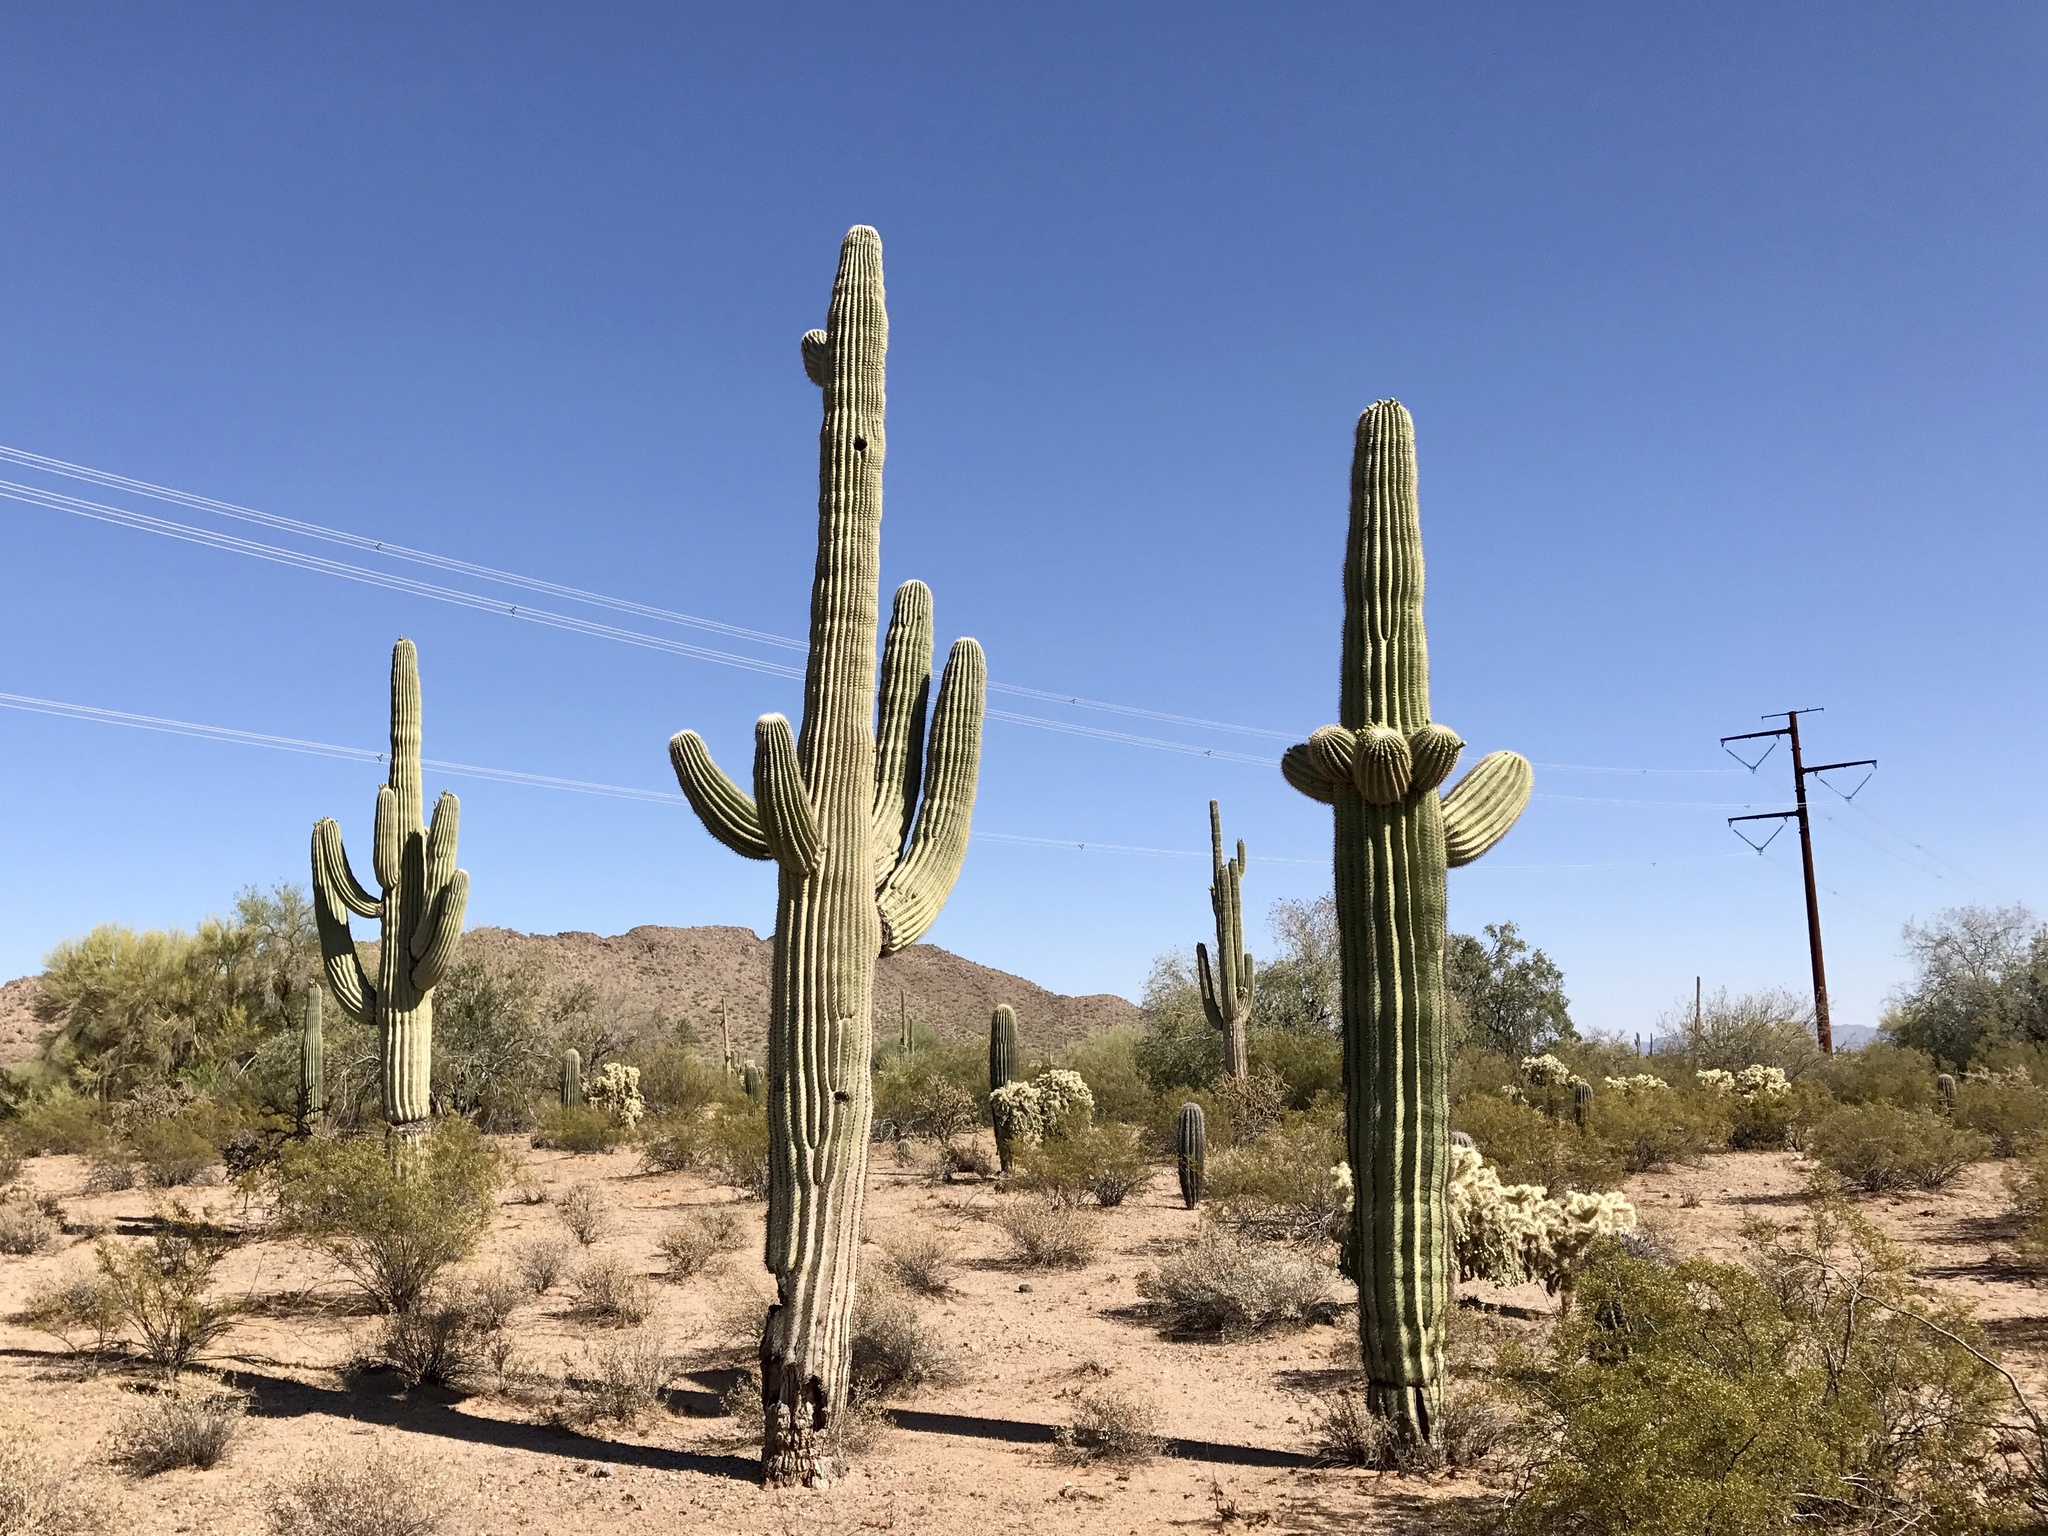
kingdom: Plantae
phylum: Tracheophyta
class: Magnoliopsida
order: Caryophyllales
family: Cactaceae
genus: Carnegiea
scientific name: Carnegiea gigantea
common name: Saguaro
